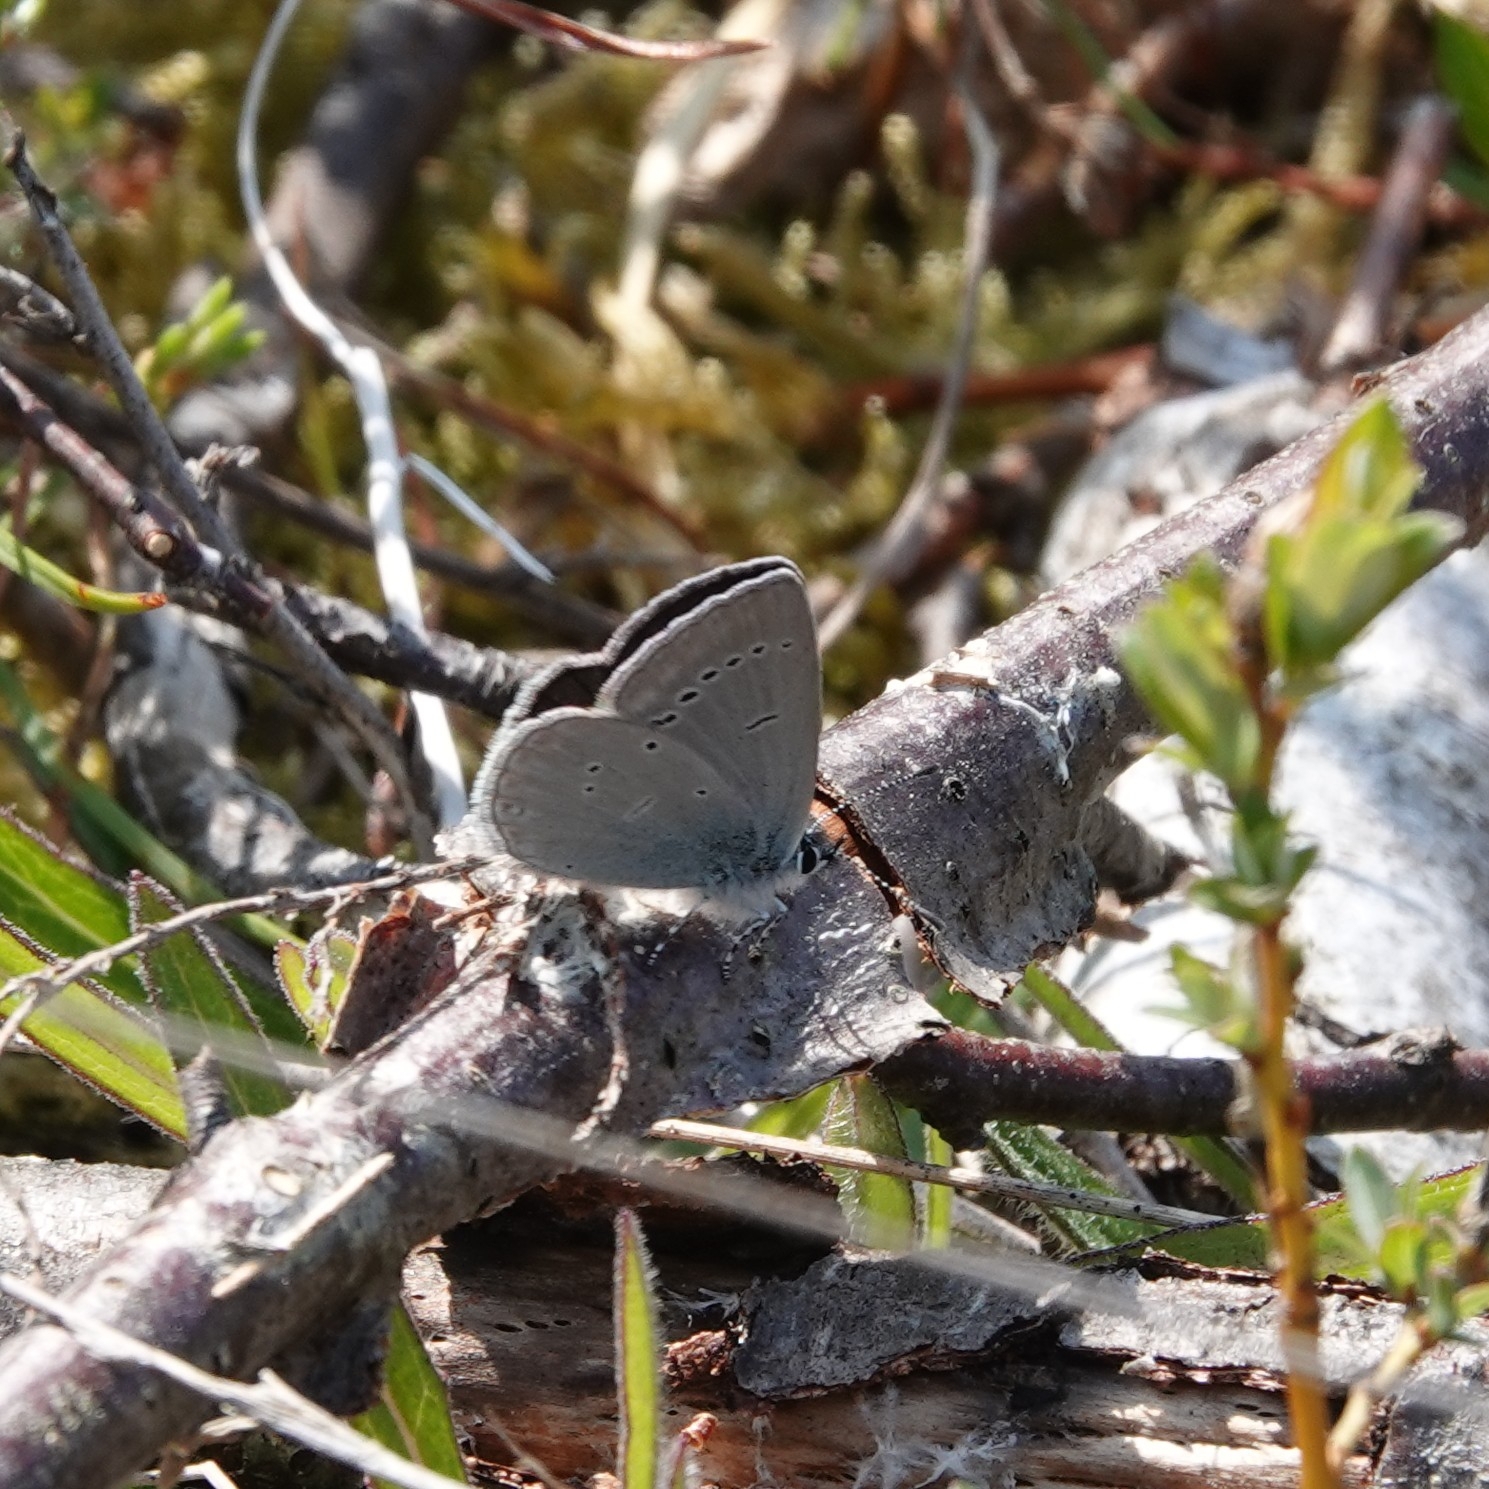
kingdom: Animalia
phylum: Arthropoda
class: Insecta
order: Lepidoptera
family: Lycaenidae
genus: Cupido
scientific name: Cupido minimus
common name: Small blue
